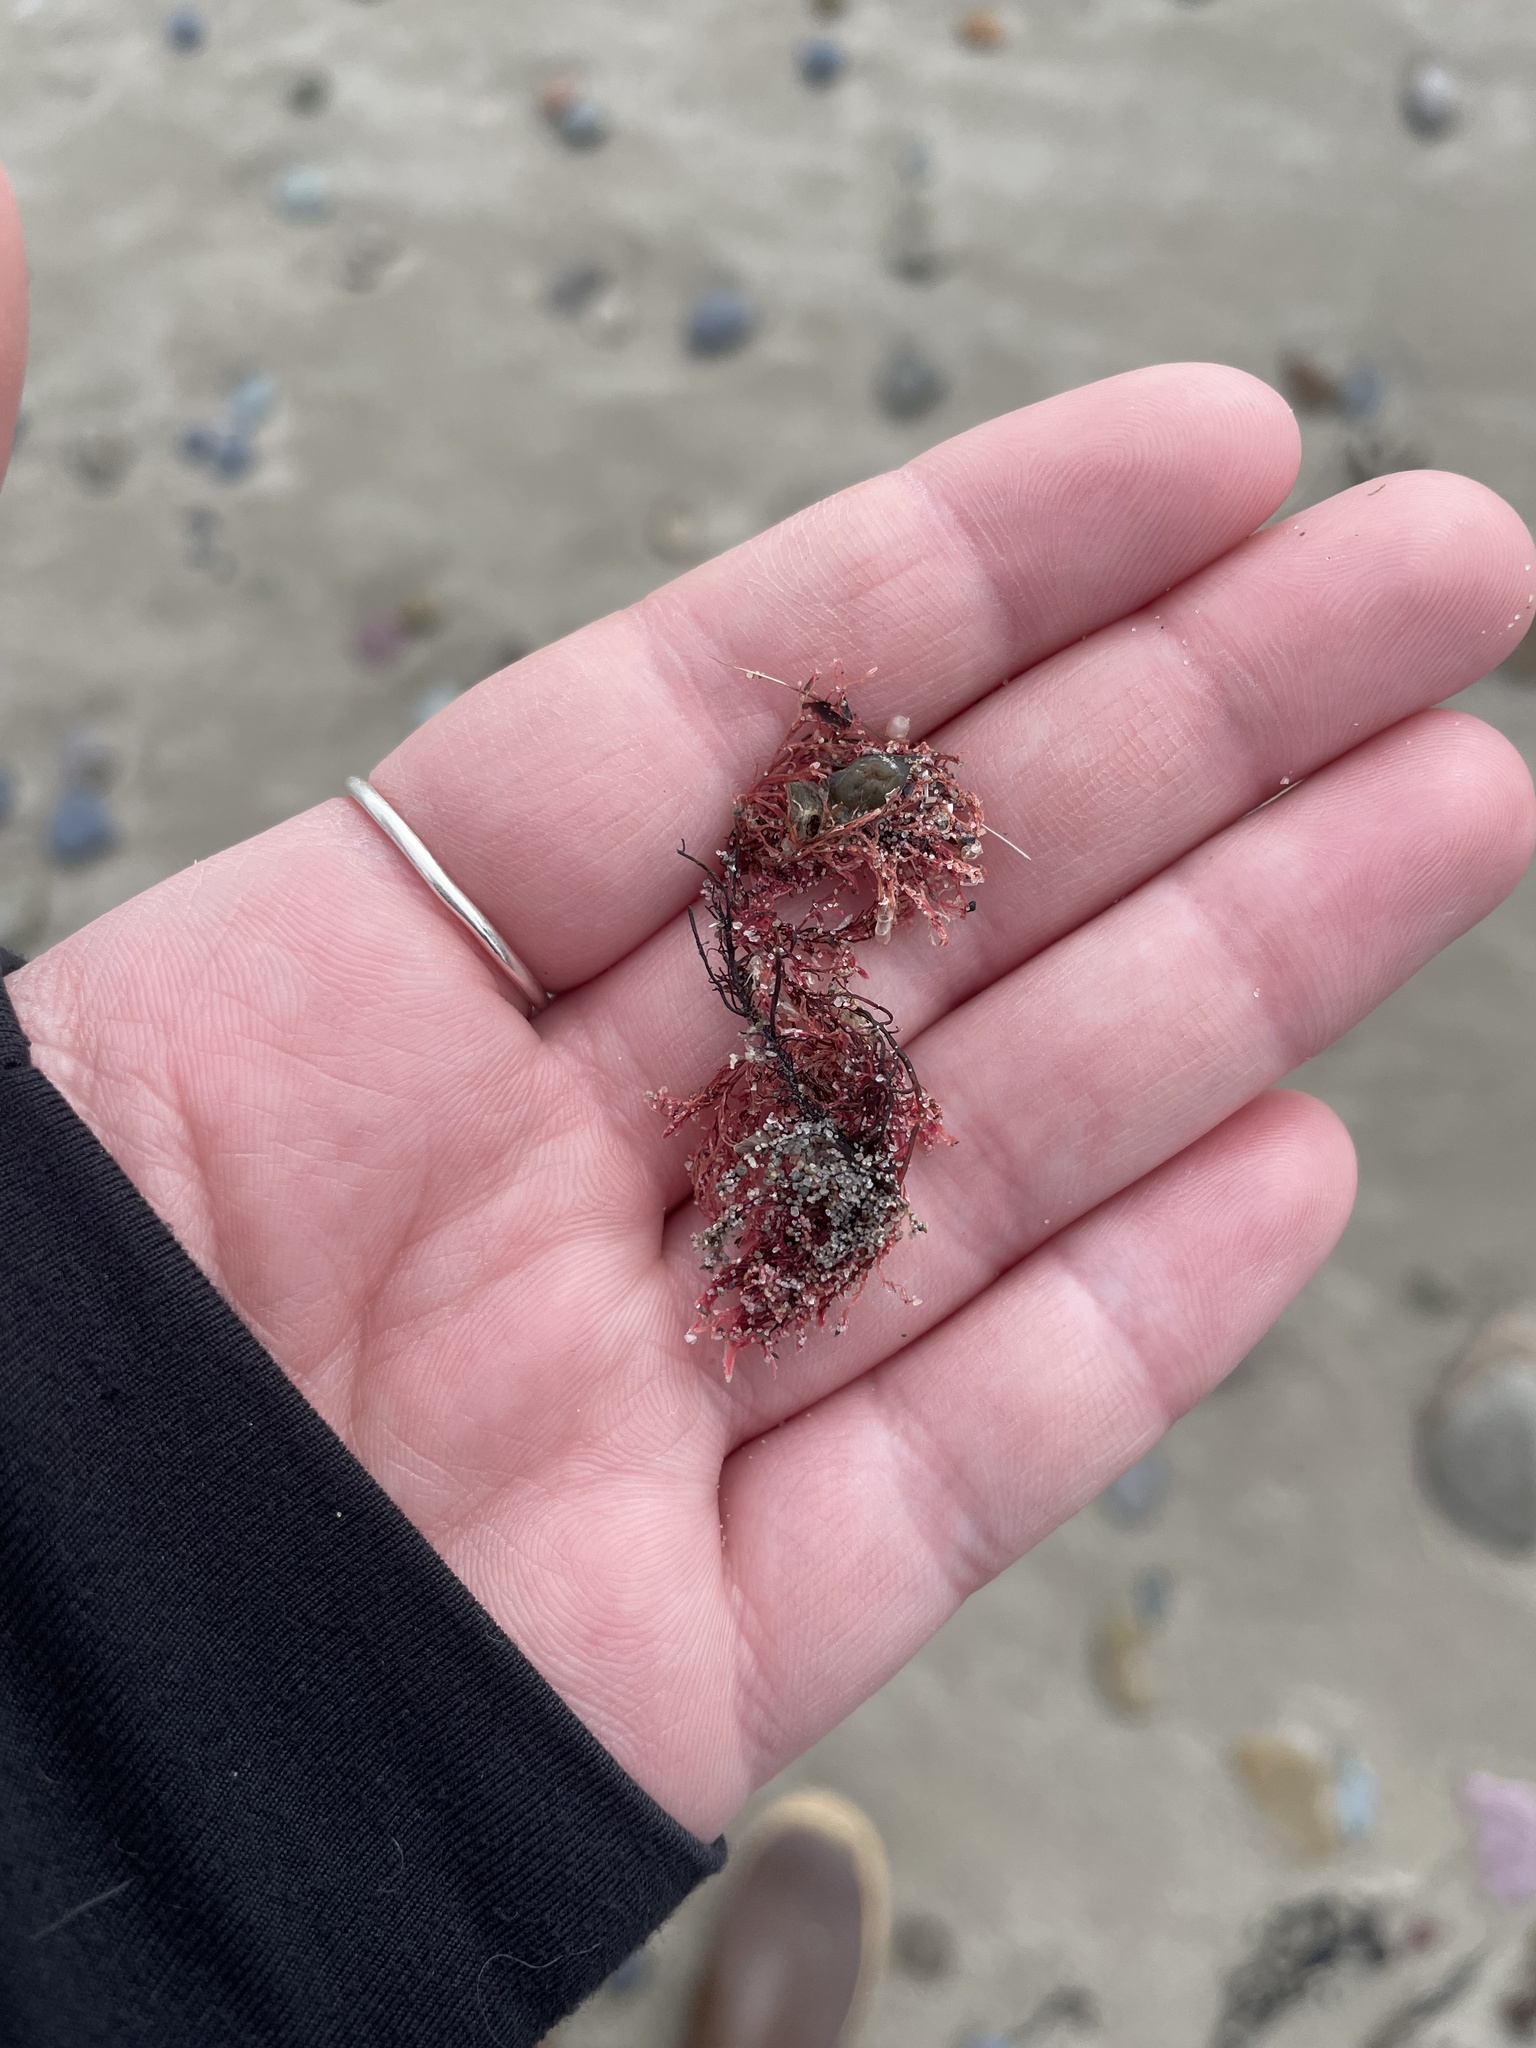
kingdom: Plantae
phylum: Rhodophyta
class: Florideophyceae
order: Corallinales
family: Corallinaceae
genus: Corallina
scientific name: Corallina officinalis
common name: Coral weed
